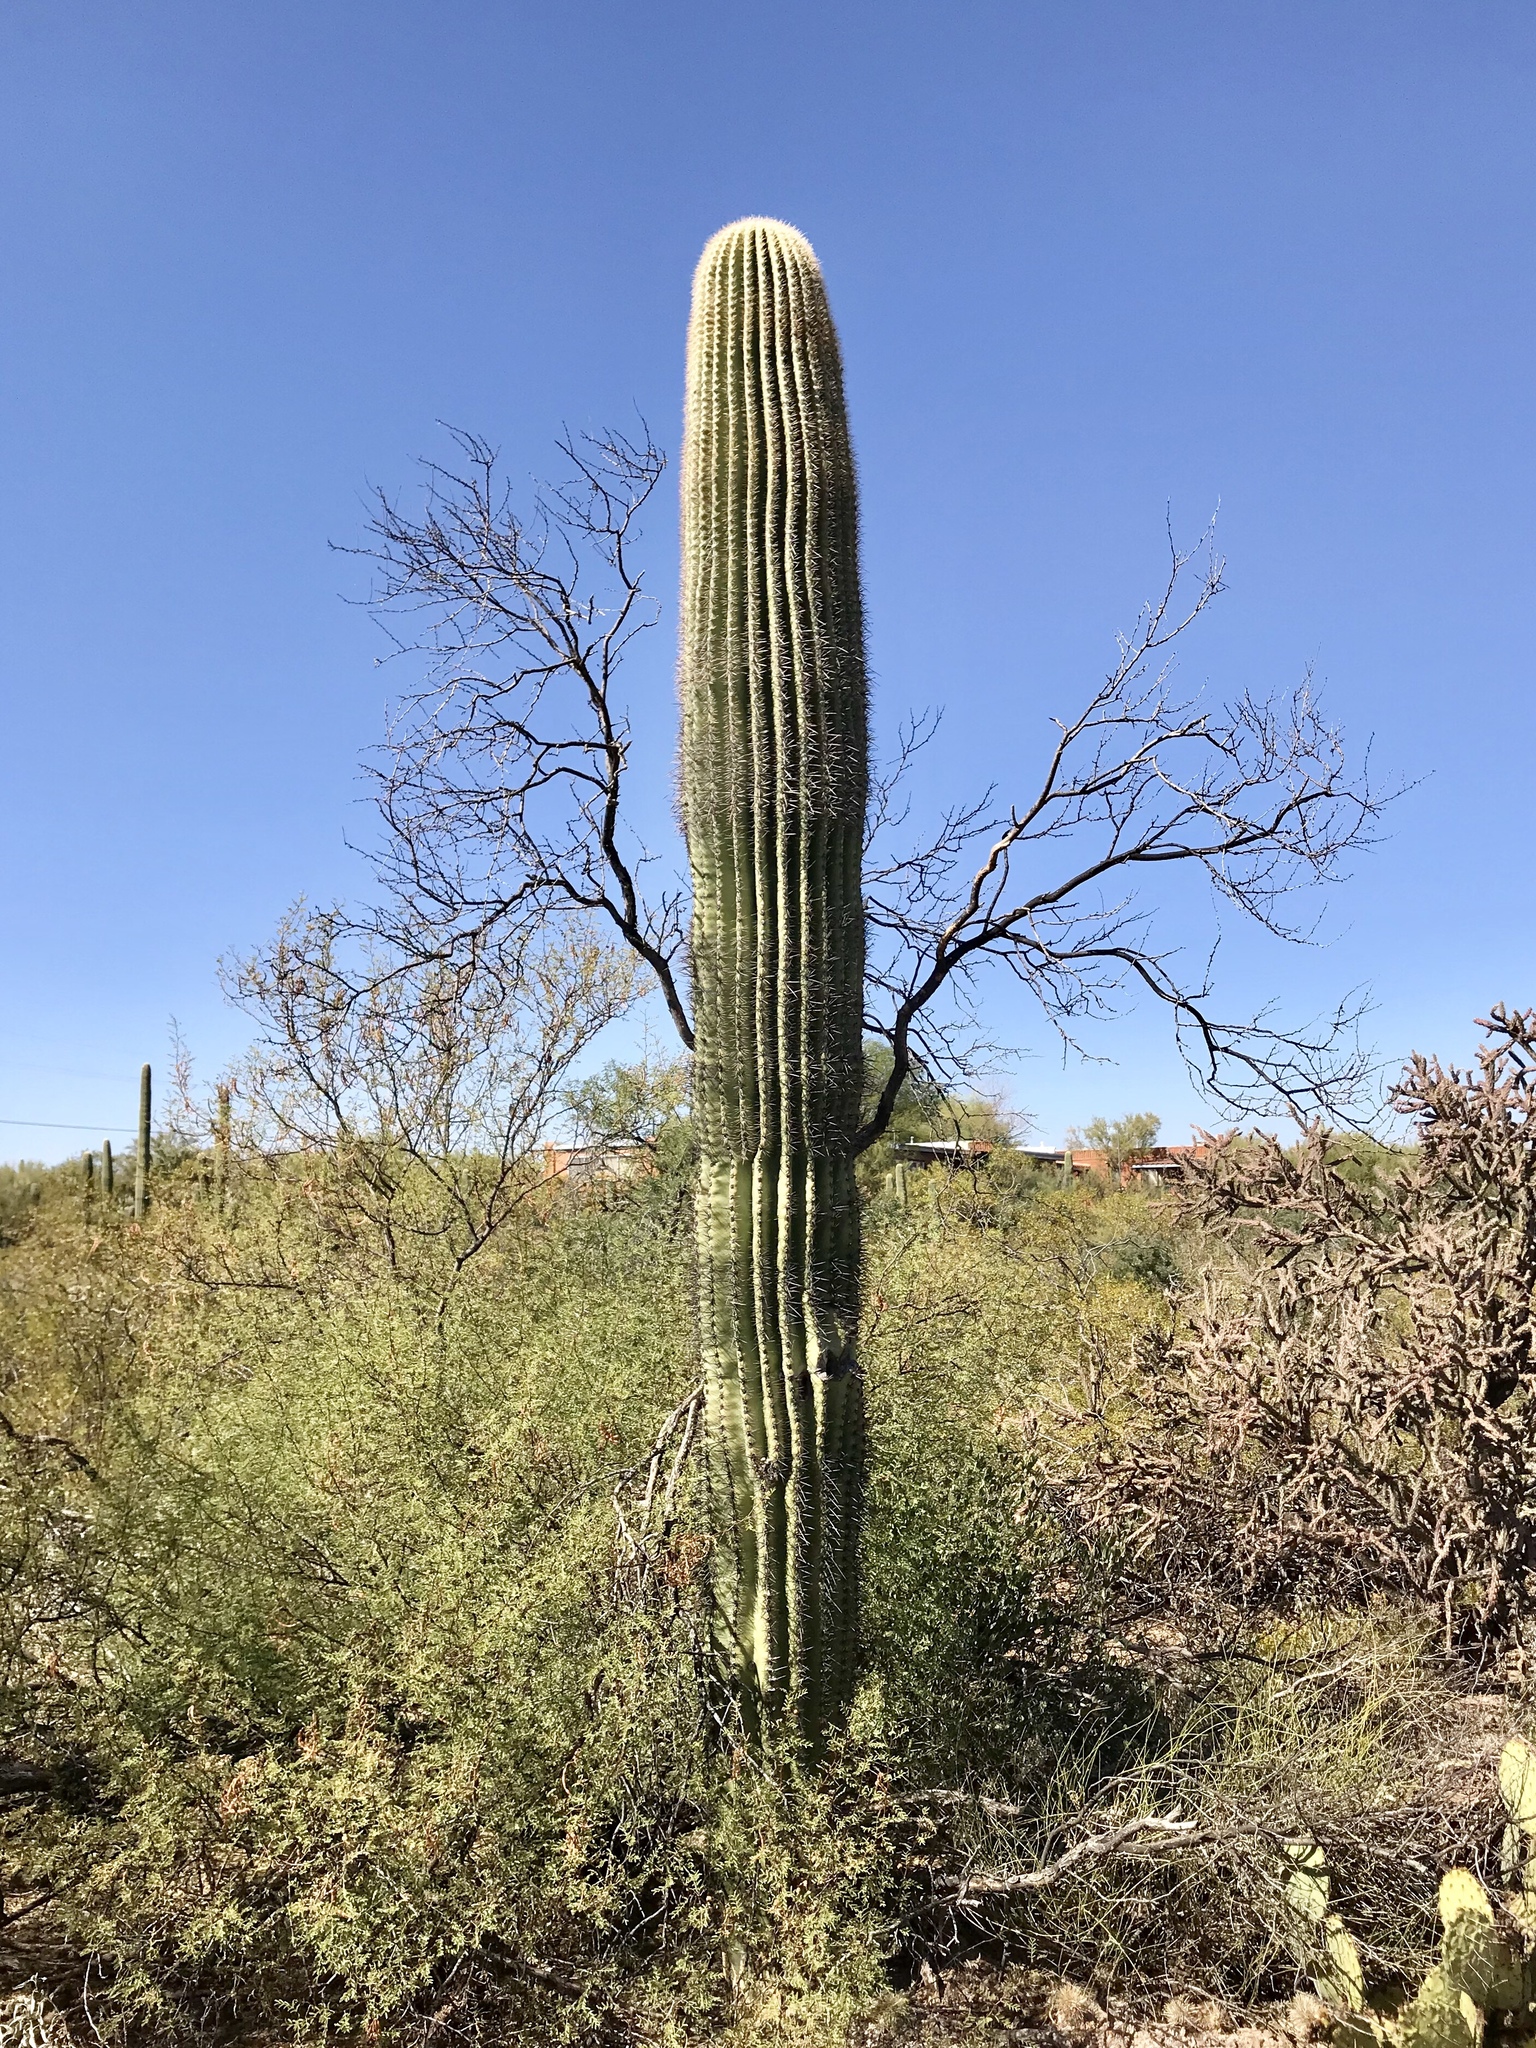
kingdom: Plantae
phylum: Tracheophyta
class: Magnoliopsida
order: Caryophyllales
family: Cactaceae
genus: Carnegiea
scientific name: Carnegiea gigantea
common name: Saguaro
